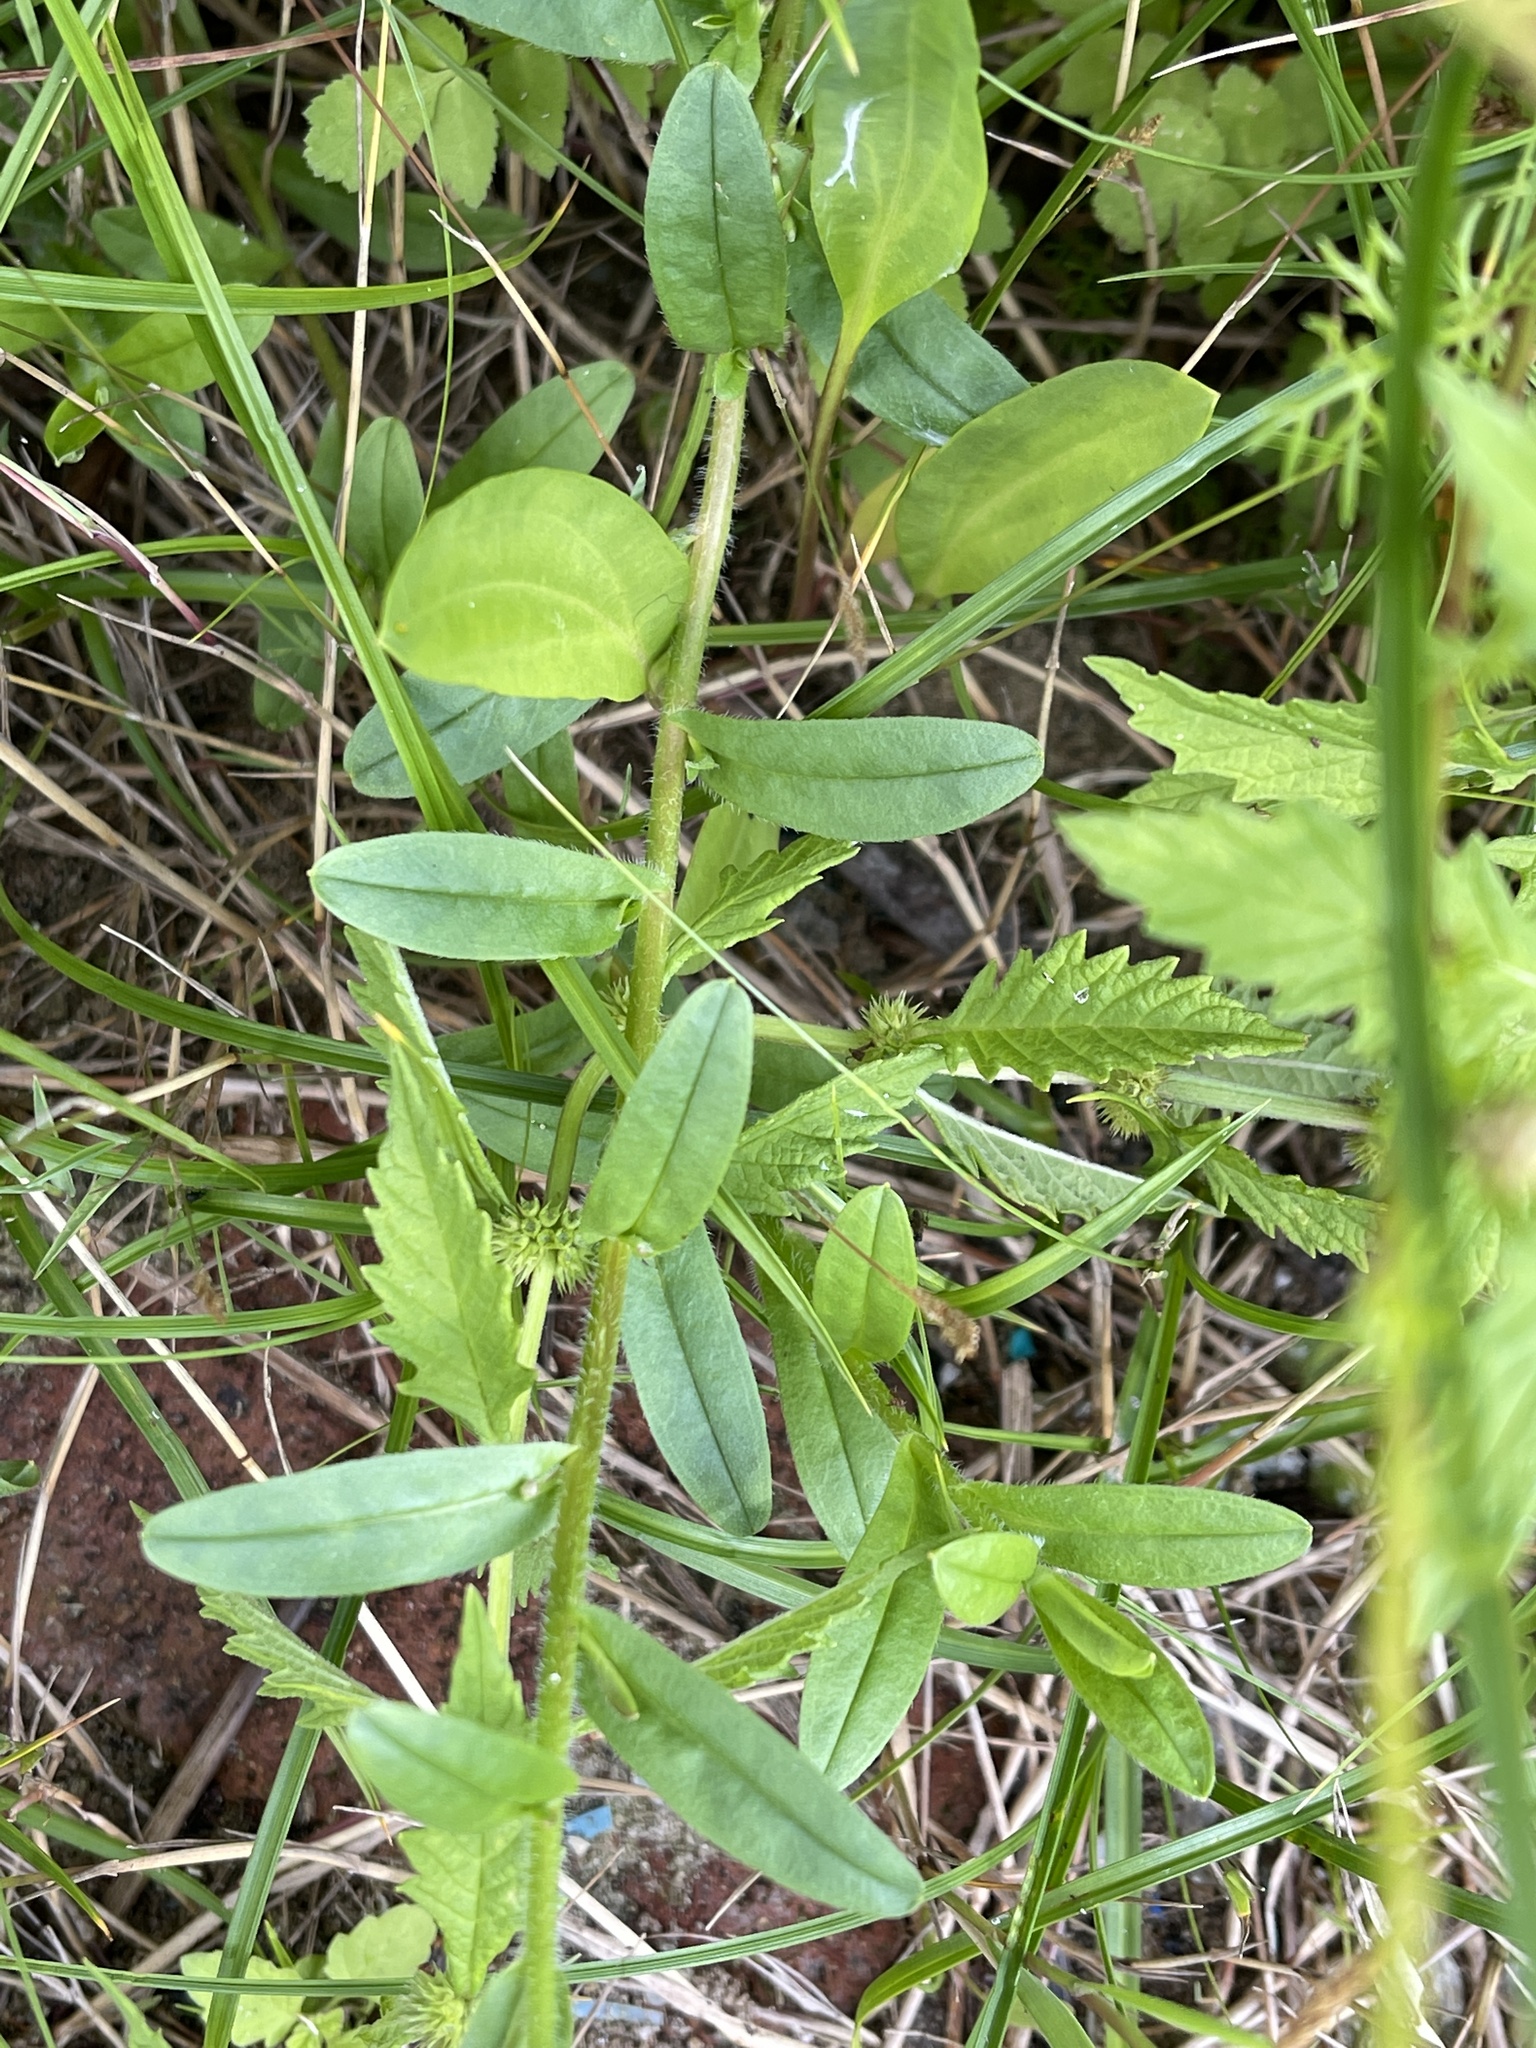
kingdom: Plantae
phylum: Tracheophyta
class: Magnoliopsida
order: Boraginales
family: Boraginaceae
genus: Myosotis
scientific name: Myosotis scorpioides
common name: Water forget-me-not
